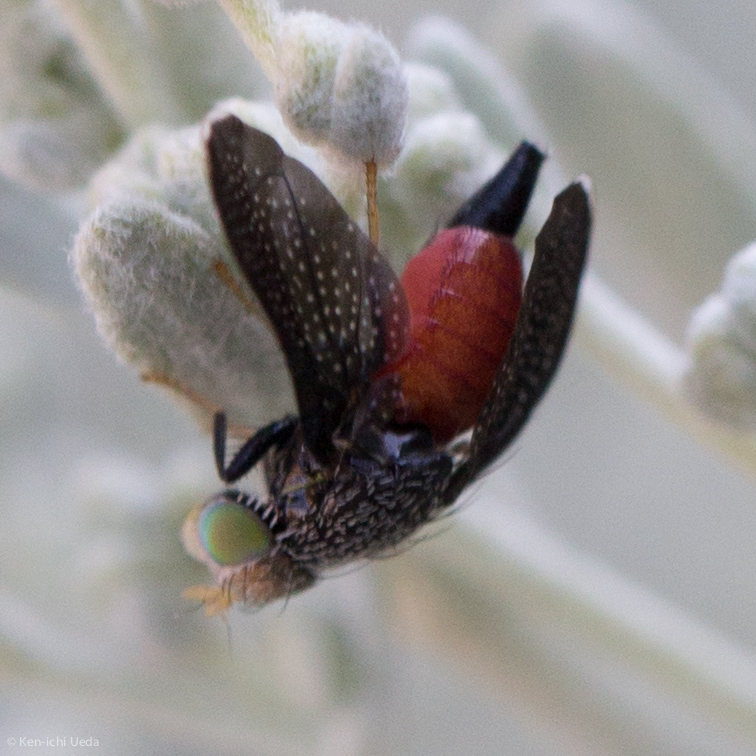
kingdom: Animalia
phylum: Arthropoda
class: Insecta
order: Diptera
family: Tephritidae
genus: Eutreta
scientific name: Eutreta diana
